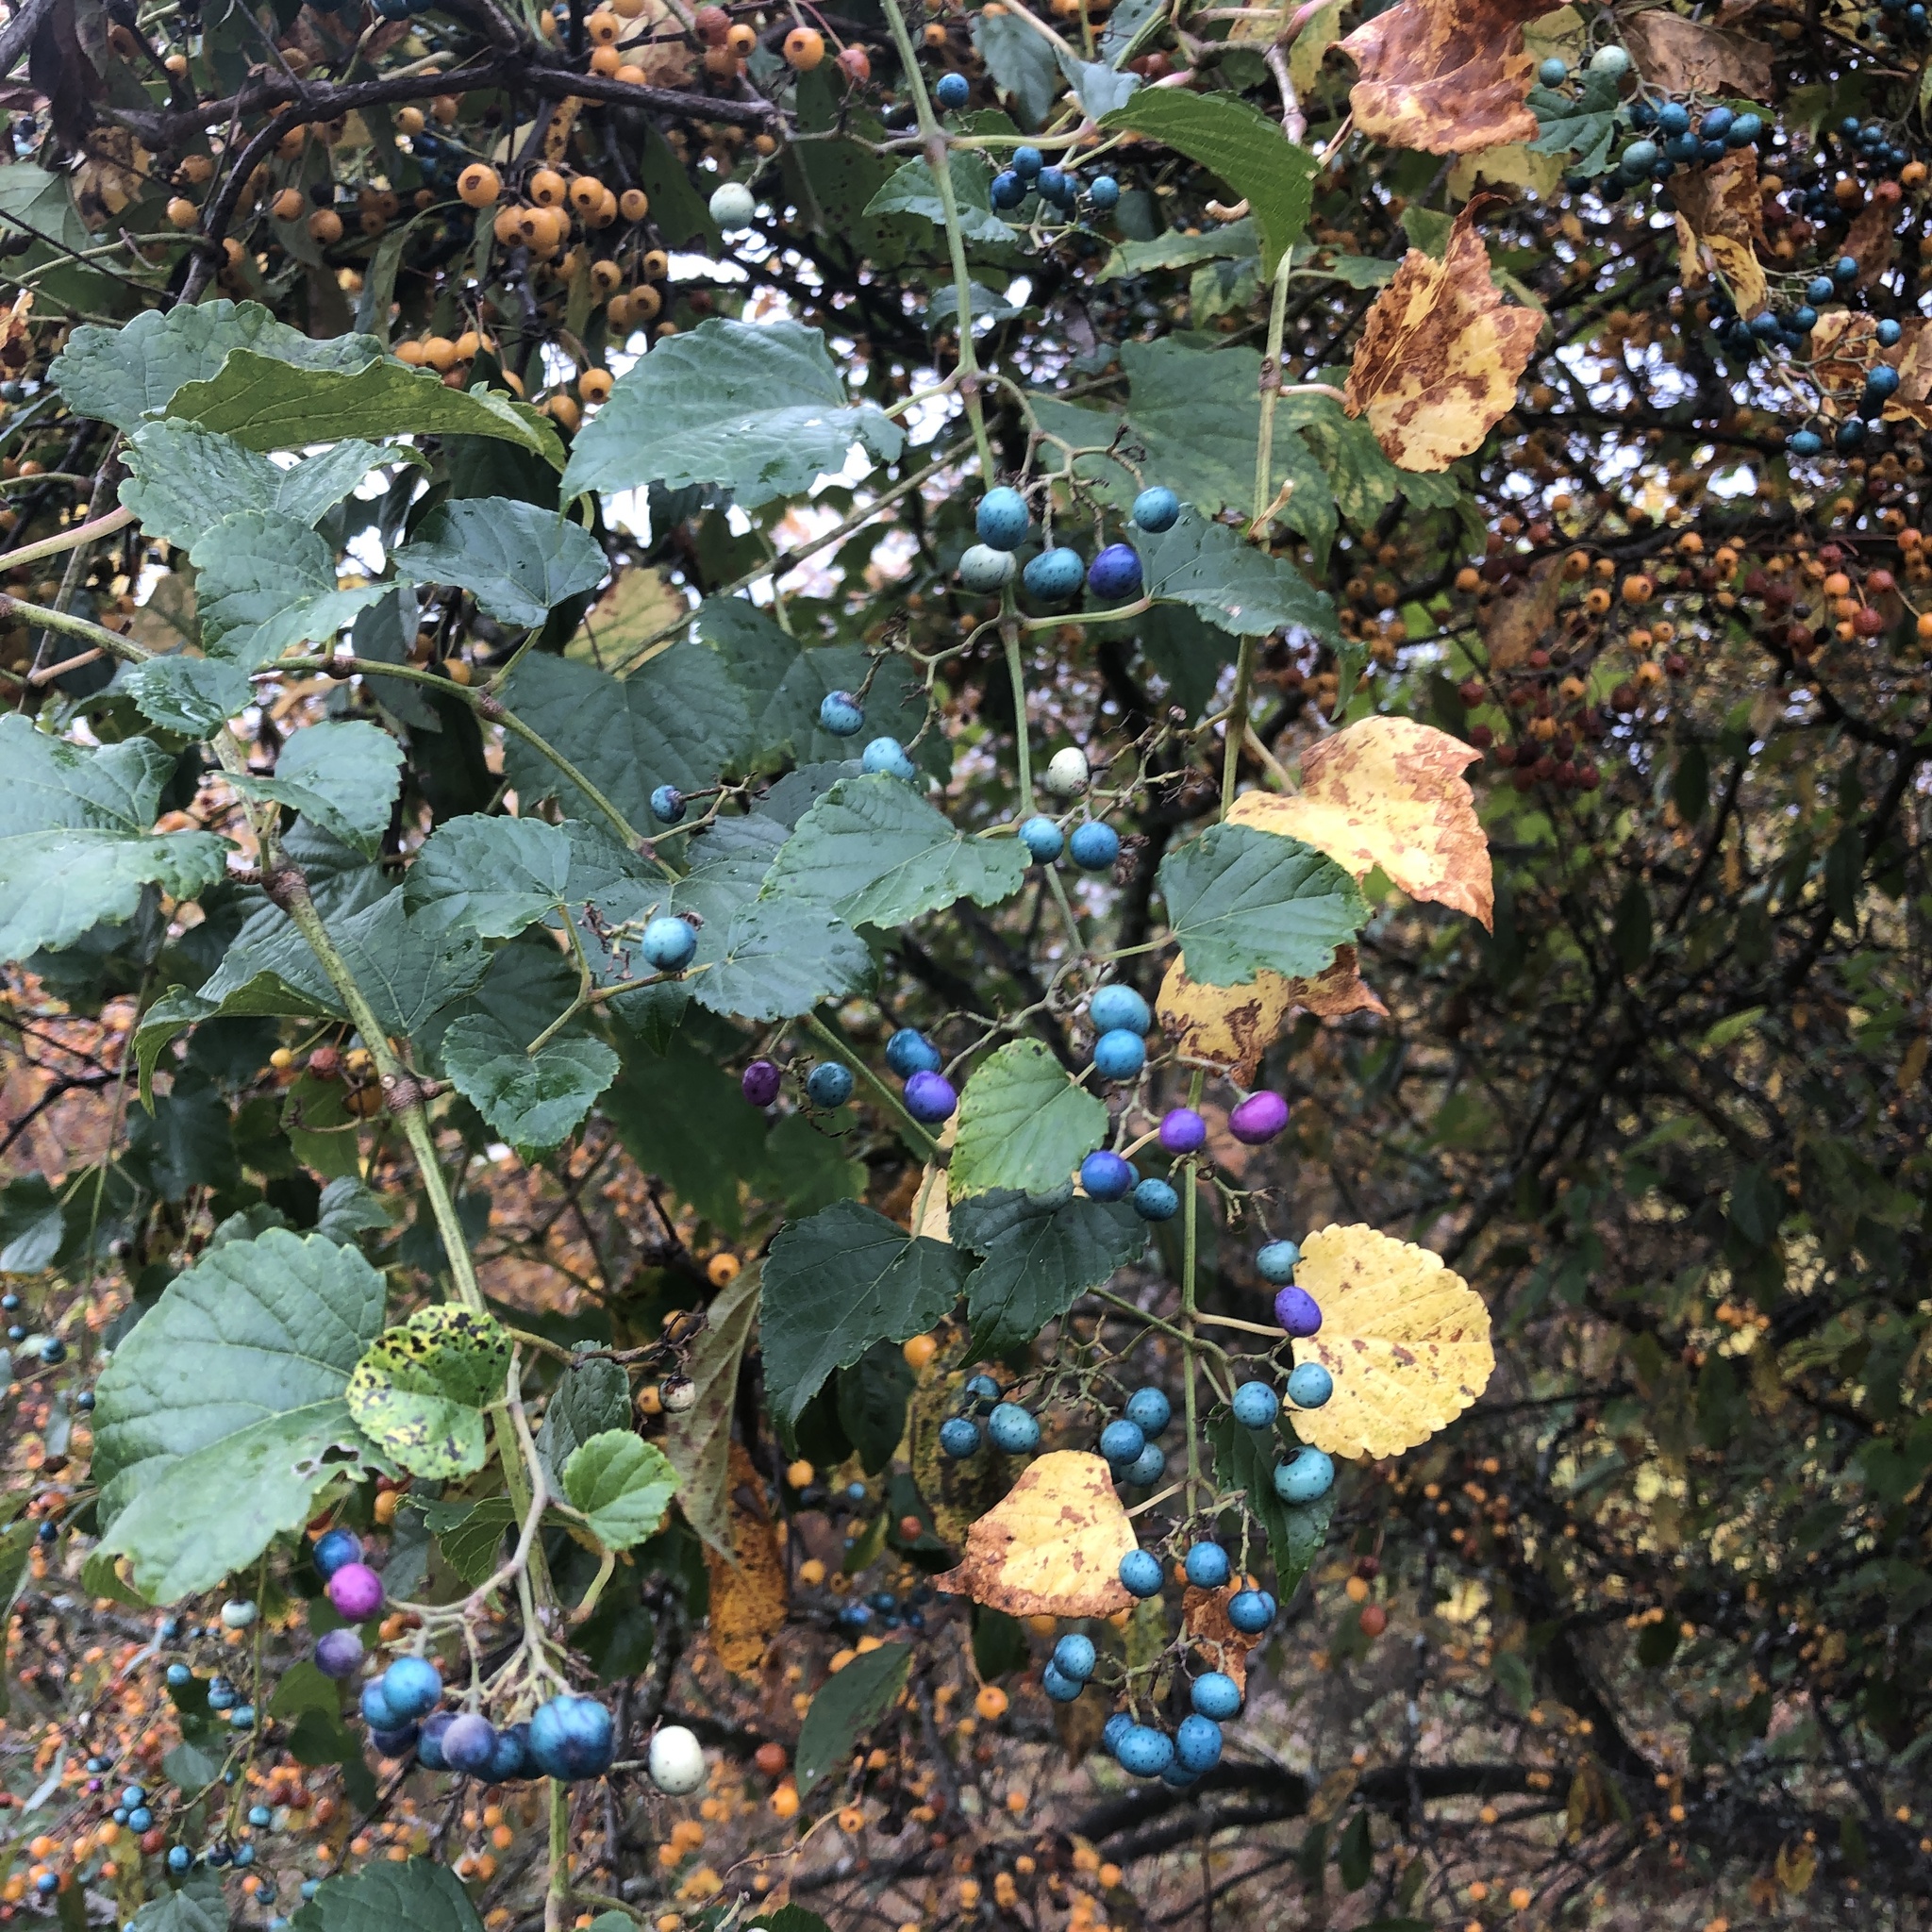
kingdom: Plantae
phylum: Tracheophyta
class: Magnoliopsida
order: Vitales
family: Vitaceae
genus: Ampelopsis
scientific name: Ampelopsis glandulosa
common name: Amur peppervine
